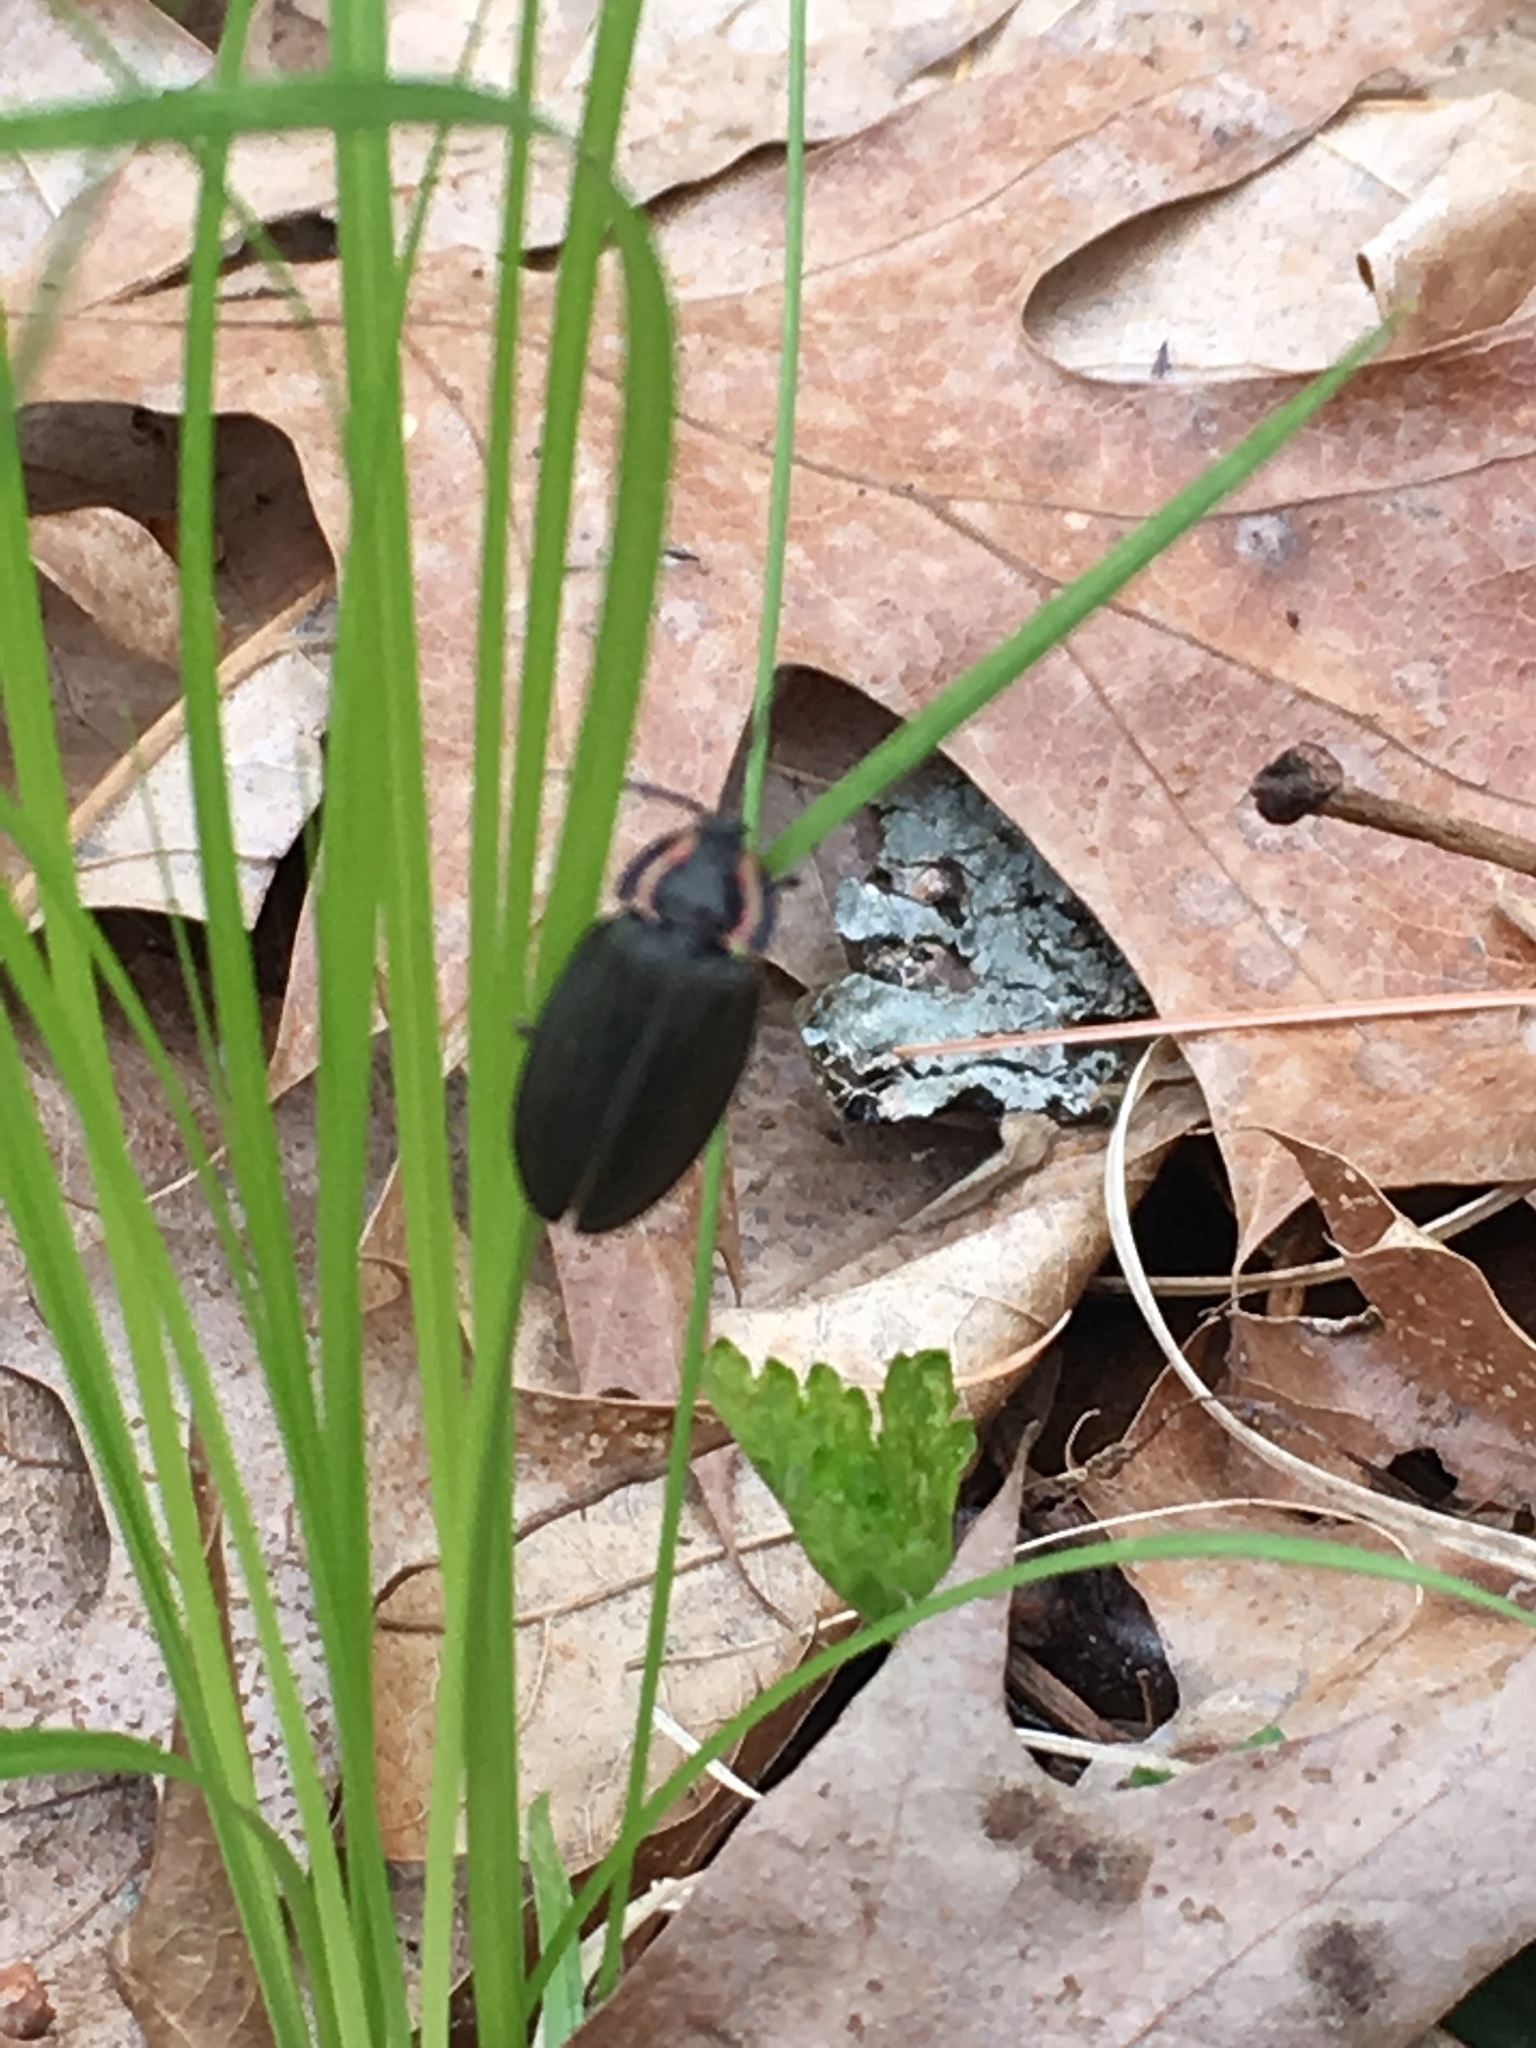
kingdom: Animalia
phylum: Arthropoda
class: Insecta
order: Coleoptera
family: Lampyridae
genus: Photinus
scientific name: Photinus corrusca
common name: Winter firefly
